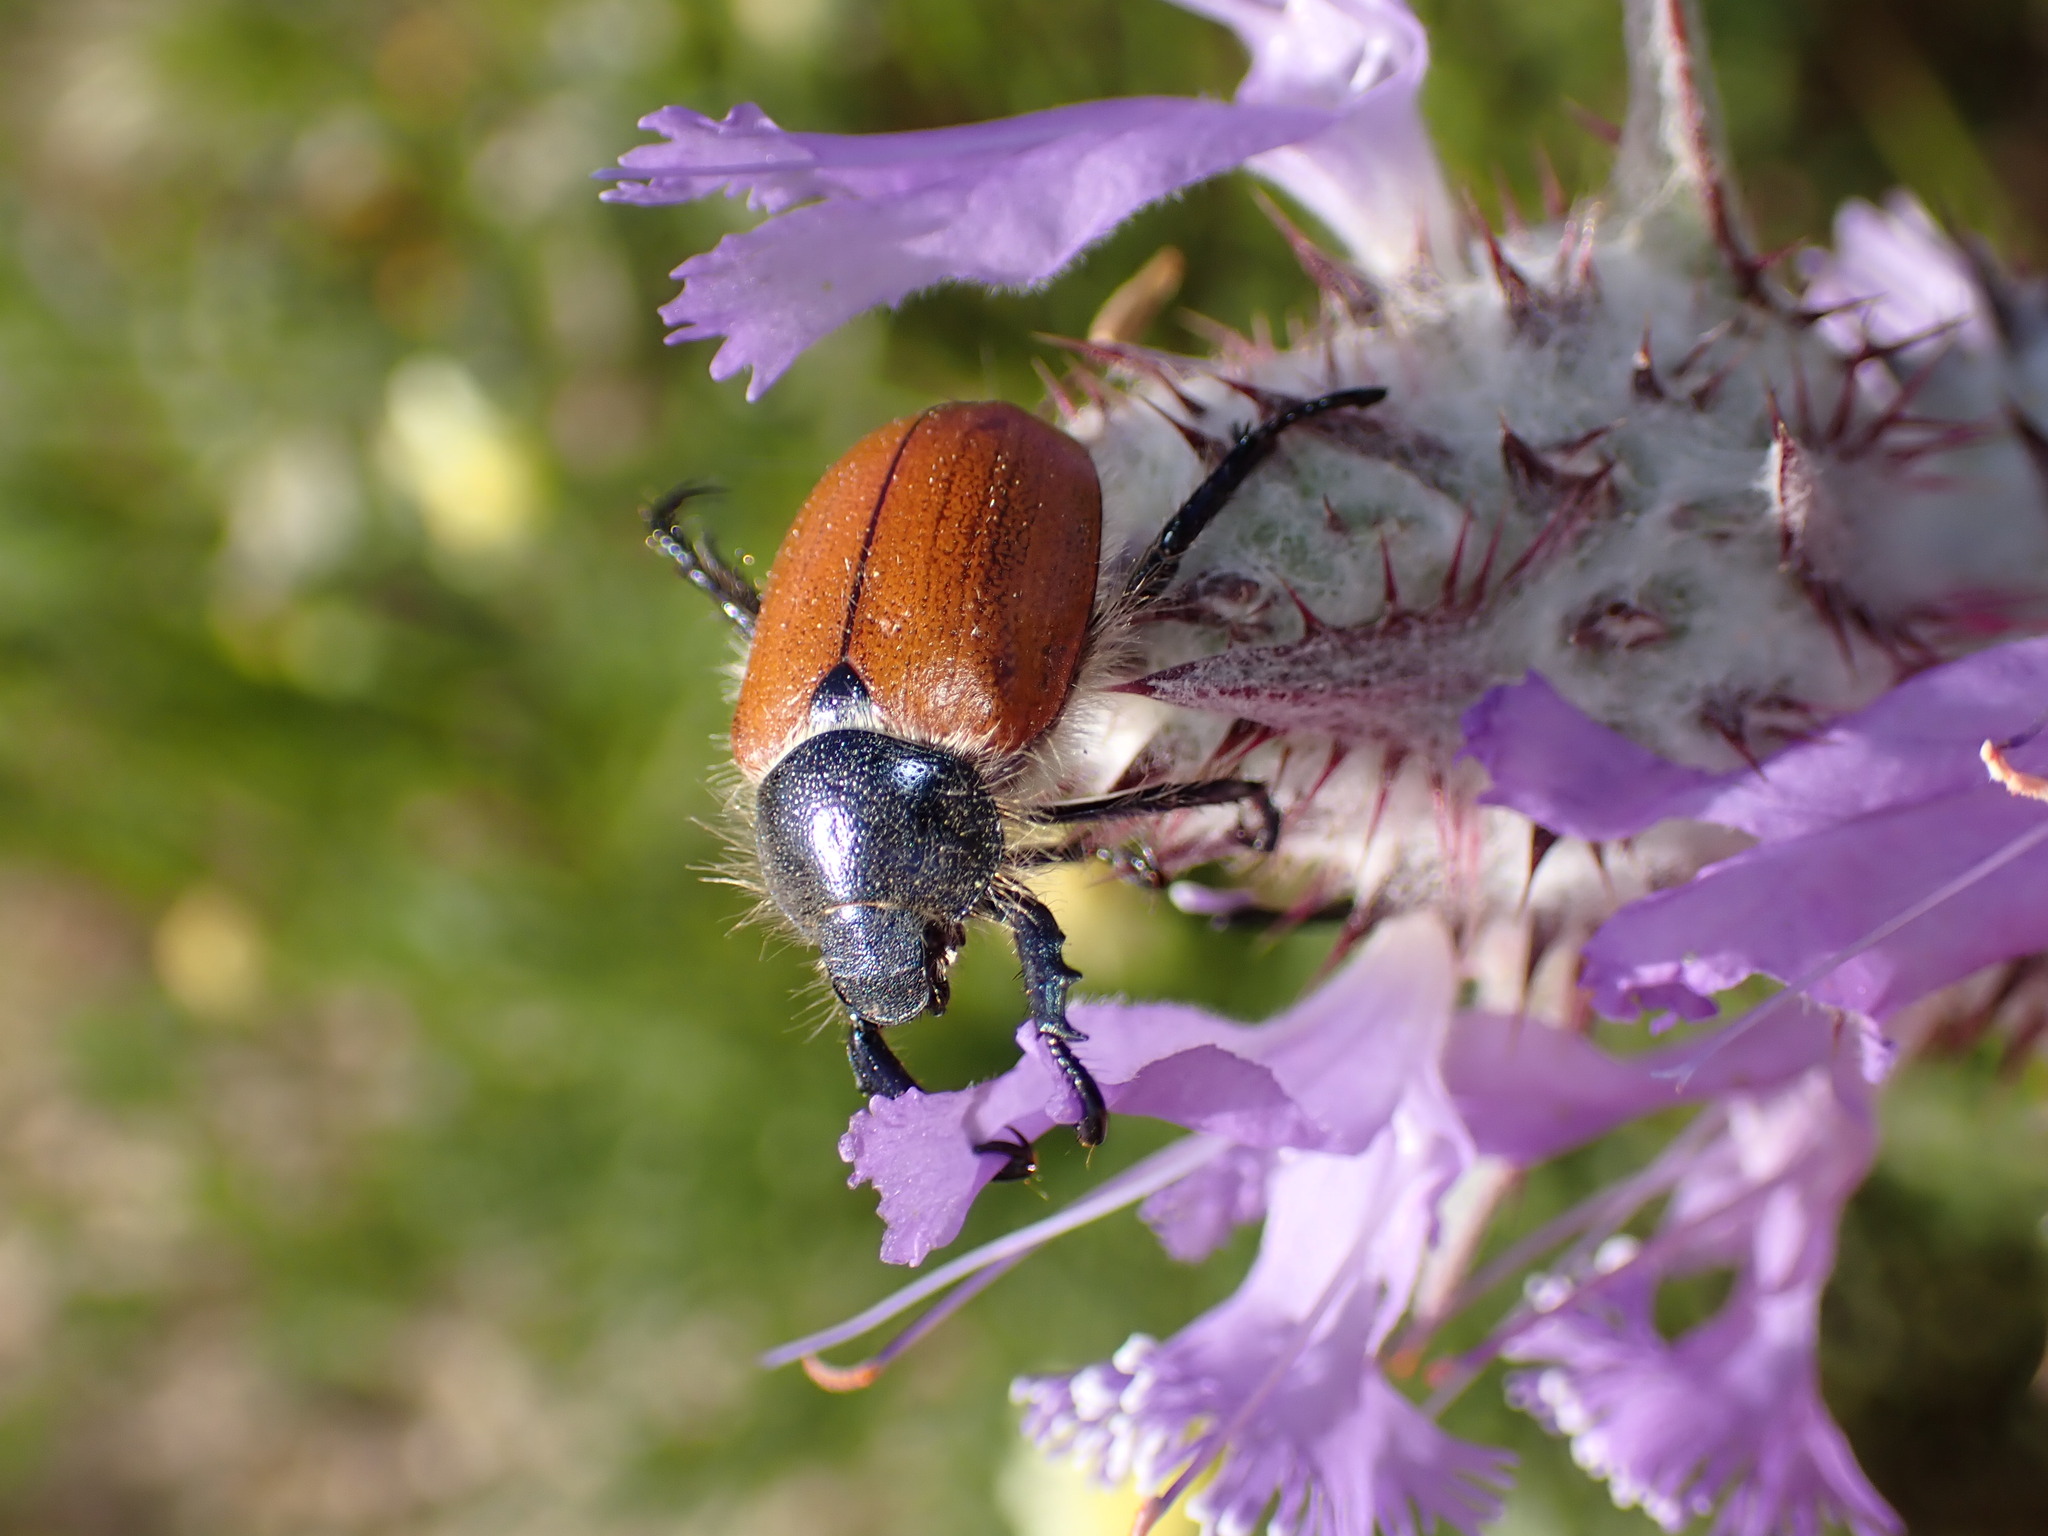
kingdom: Animalia
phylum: Arthropoda
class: Insecta
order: Coleoptera
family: Scarabaeidae
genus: Paracotalpa
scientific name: Paracotalpa ursina
